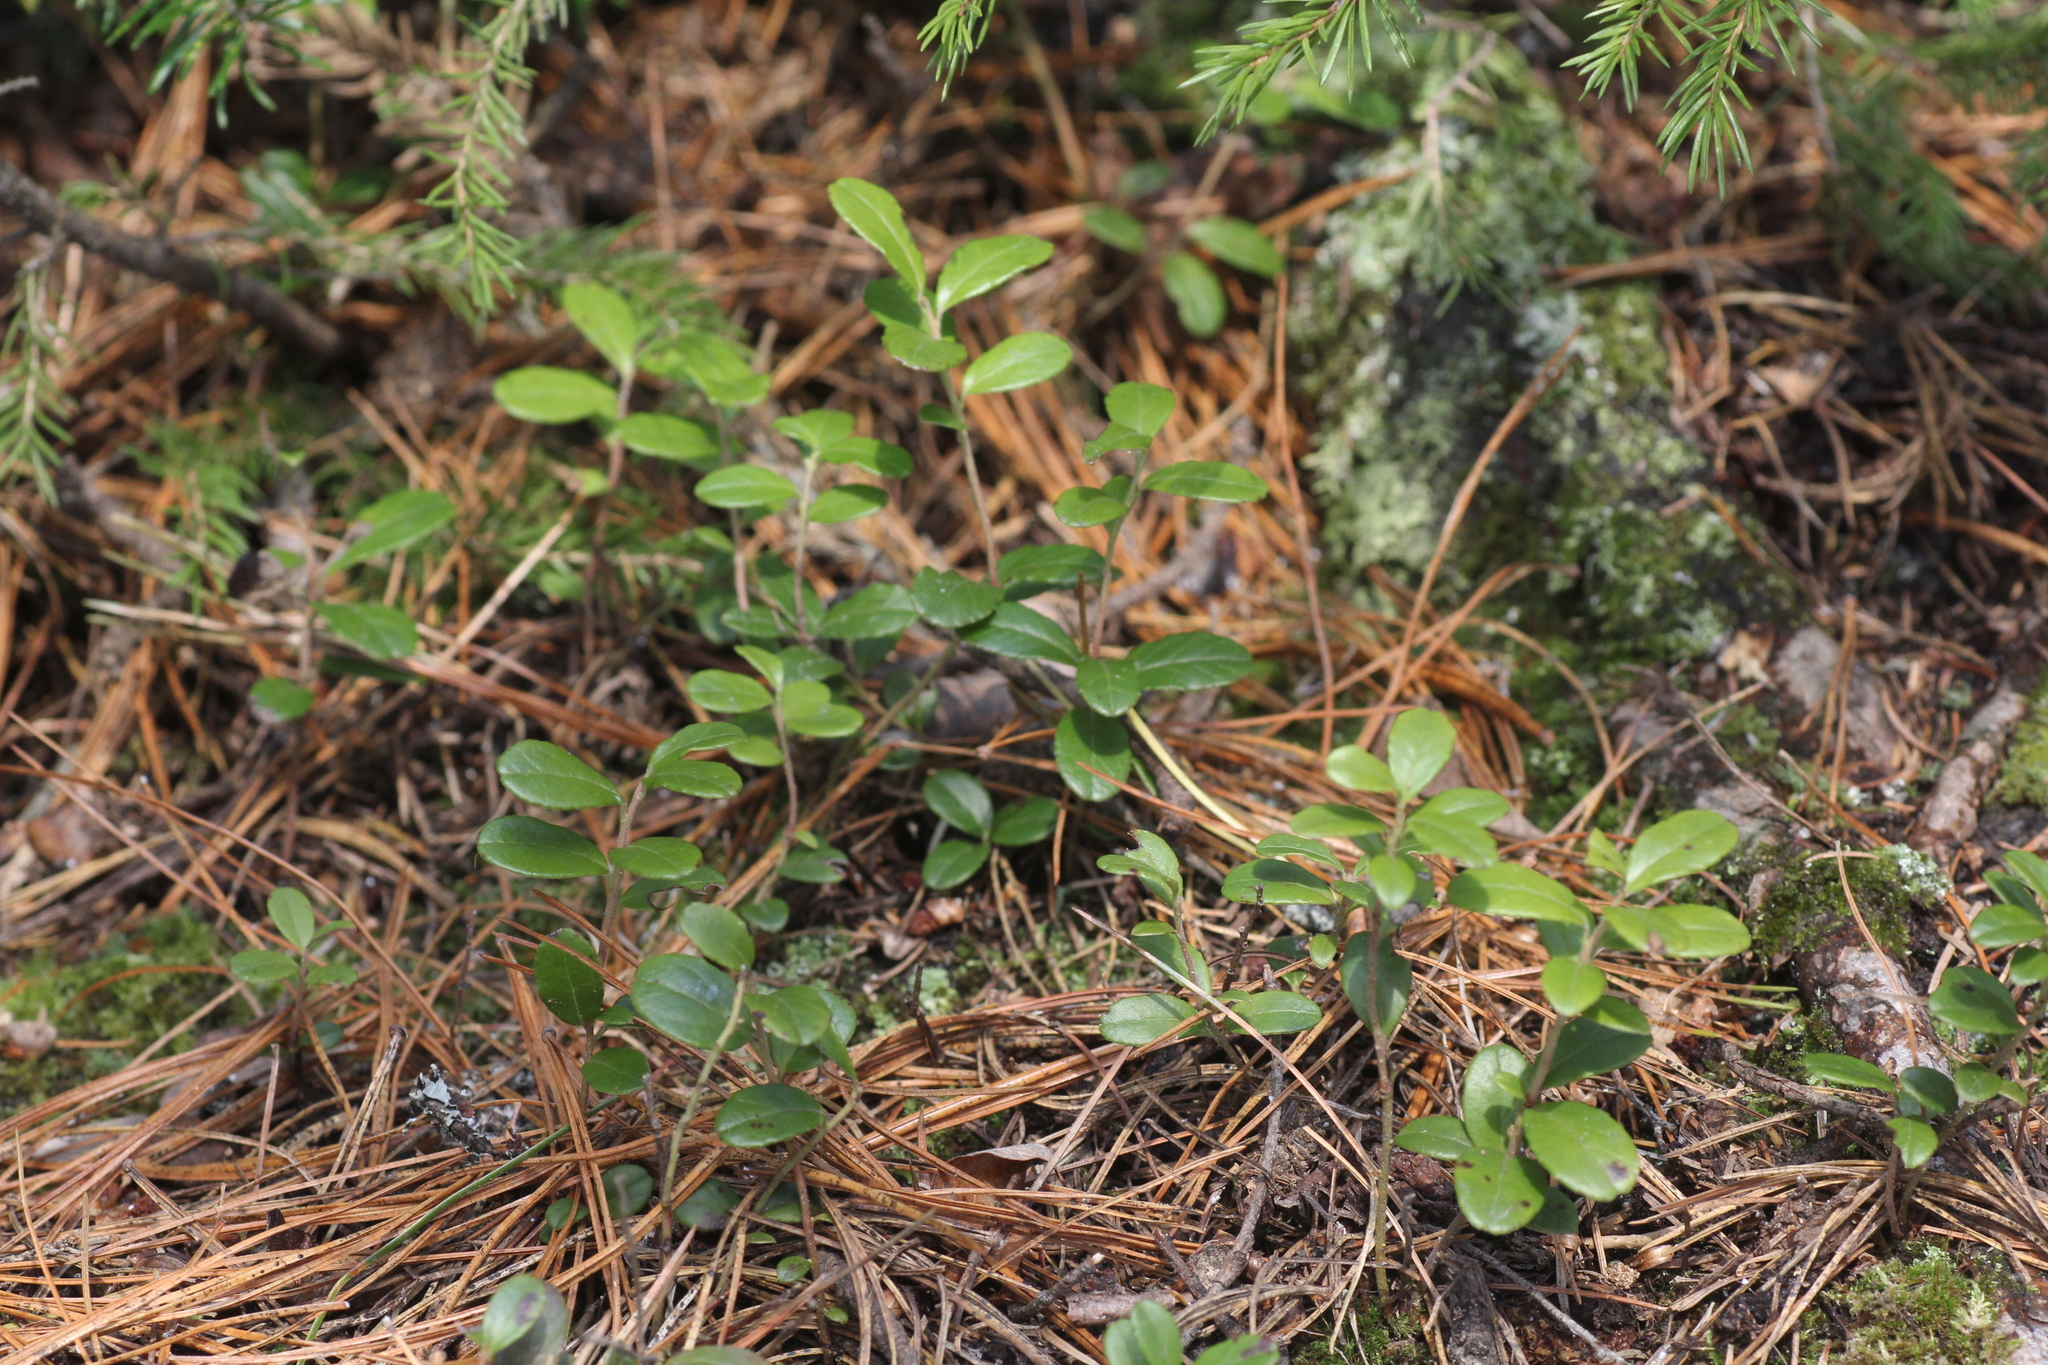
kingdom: Plantae
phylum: Tracheophyta
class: Magnoliopsida
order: Ericales
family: Ericaceae
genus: Vaccinium
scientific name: Vaccinium vitis-idaea
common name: Cowberry
